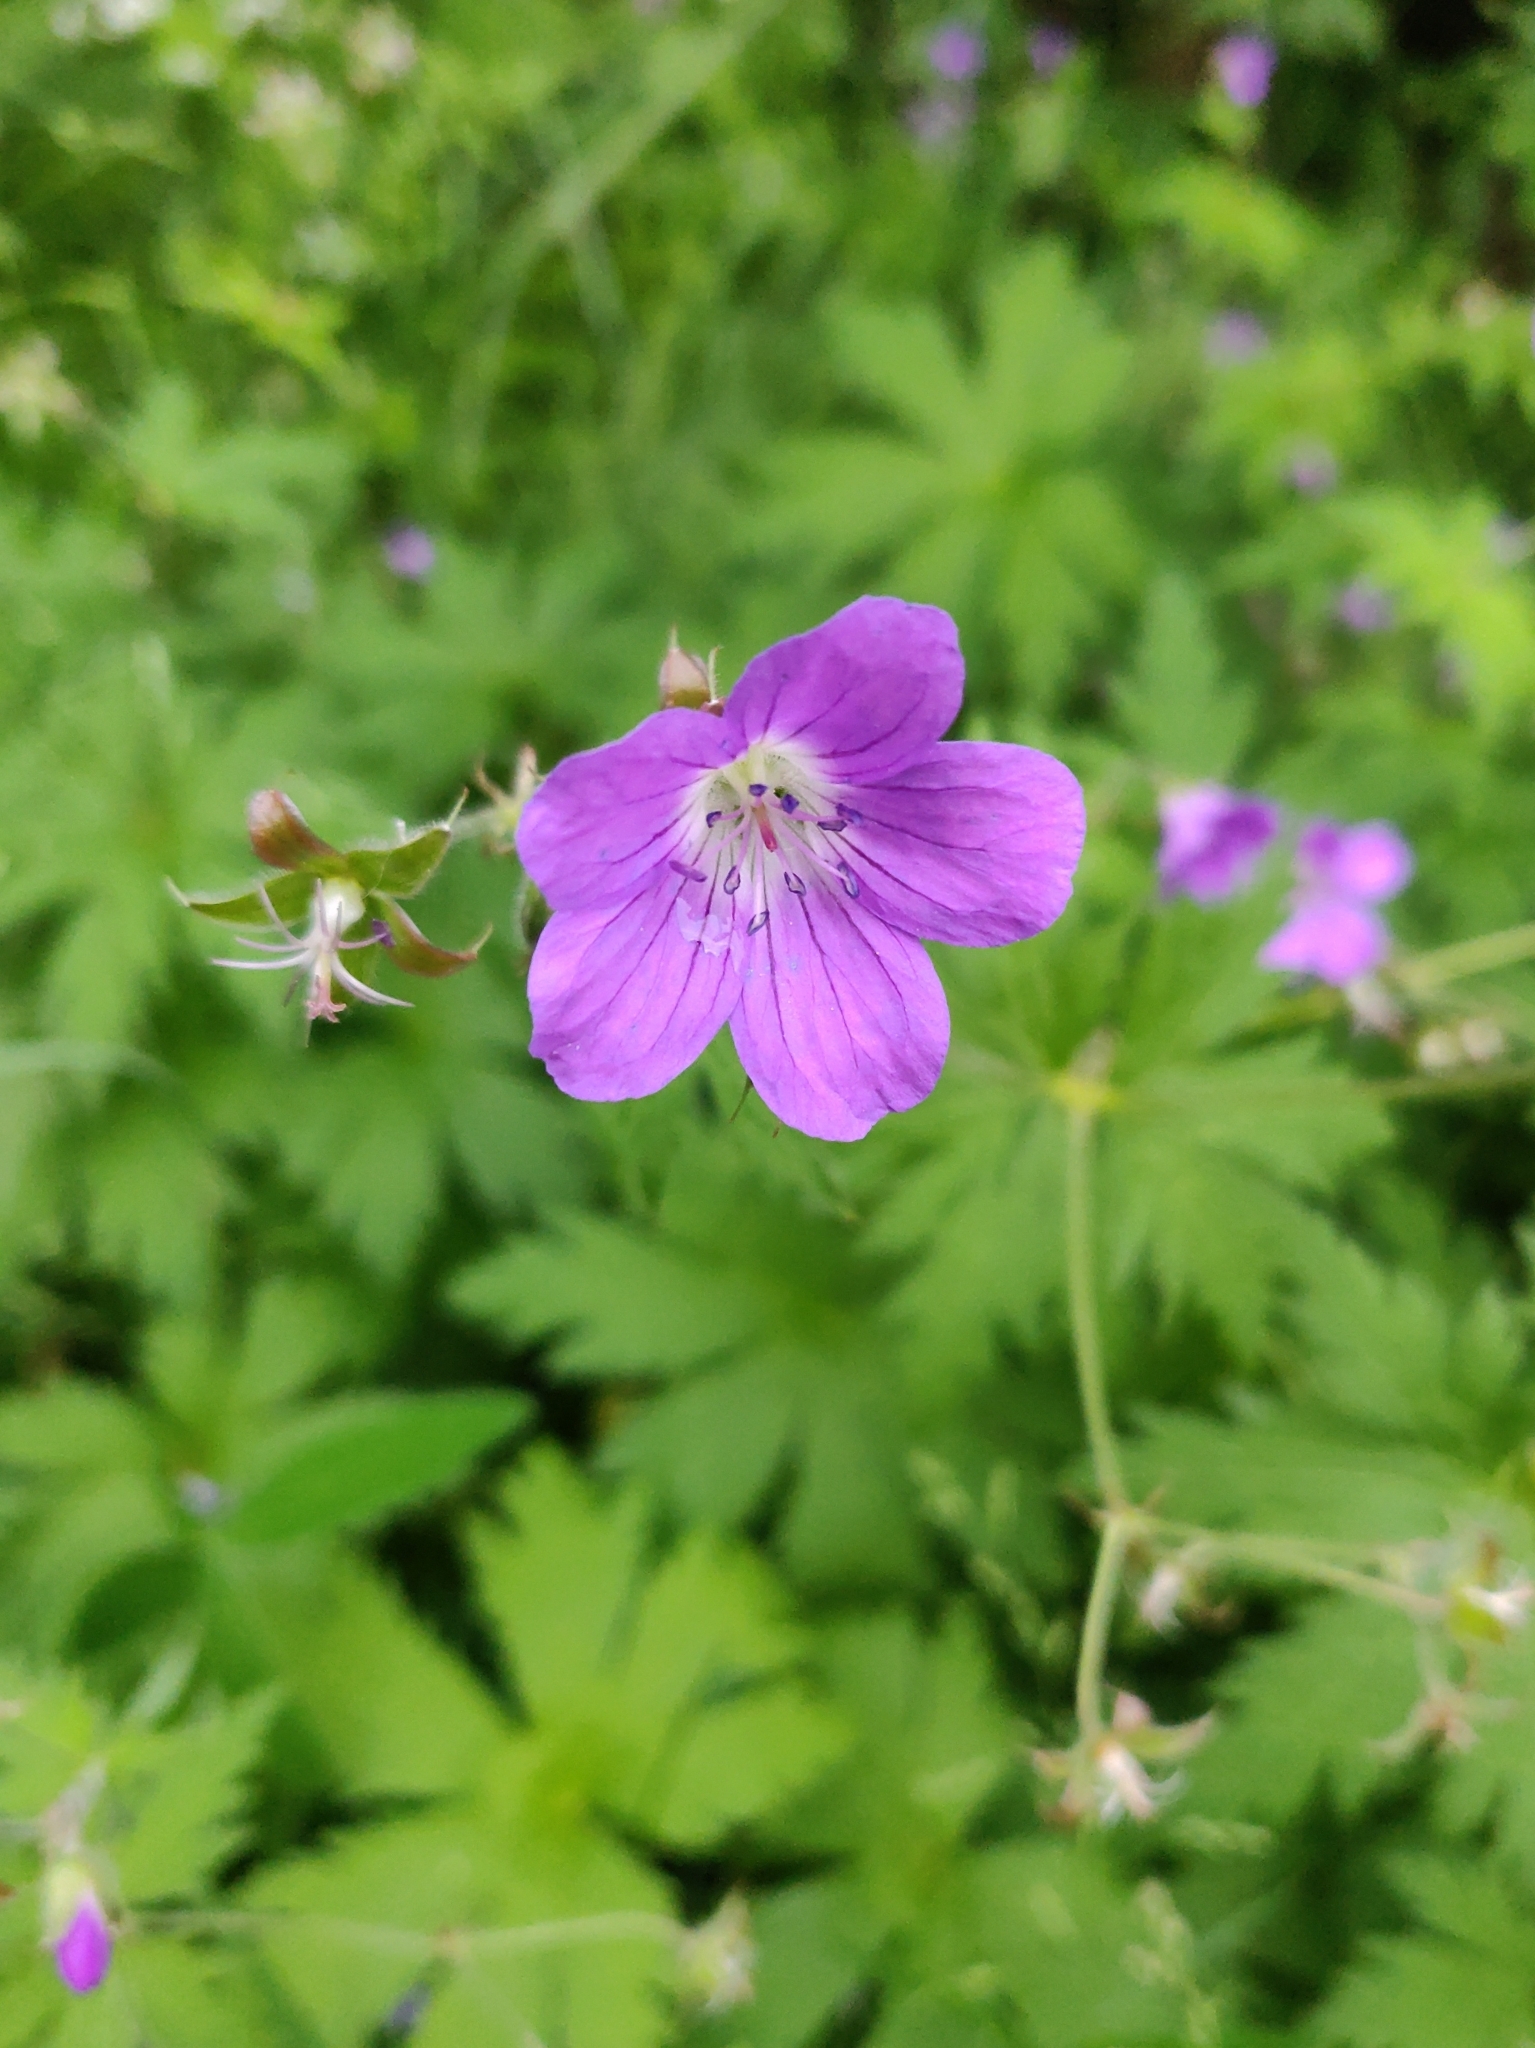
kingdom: Plantae
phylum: Tracheophyta
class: Magnoliopsida
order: Geraniales
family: Geraniaceae
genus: Geranium
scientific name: Geranium sylvaticum
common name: Wood crane's-bill
